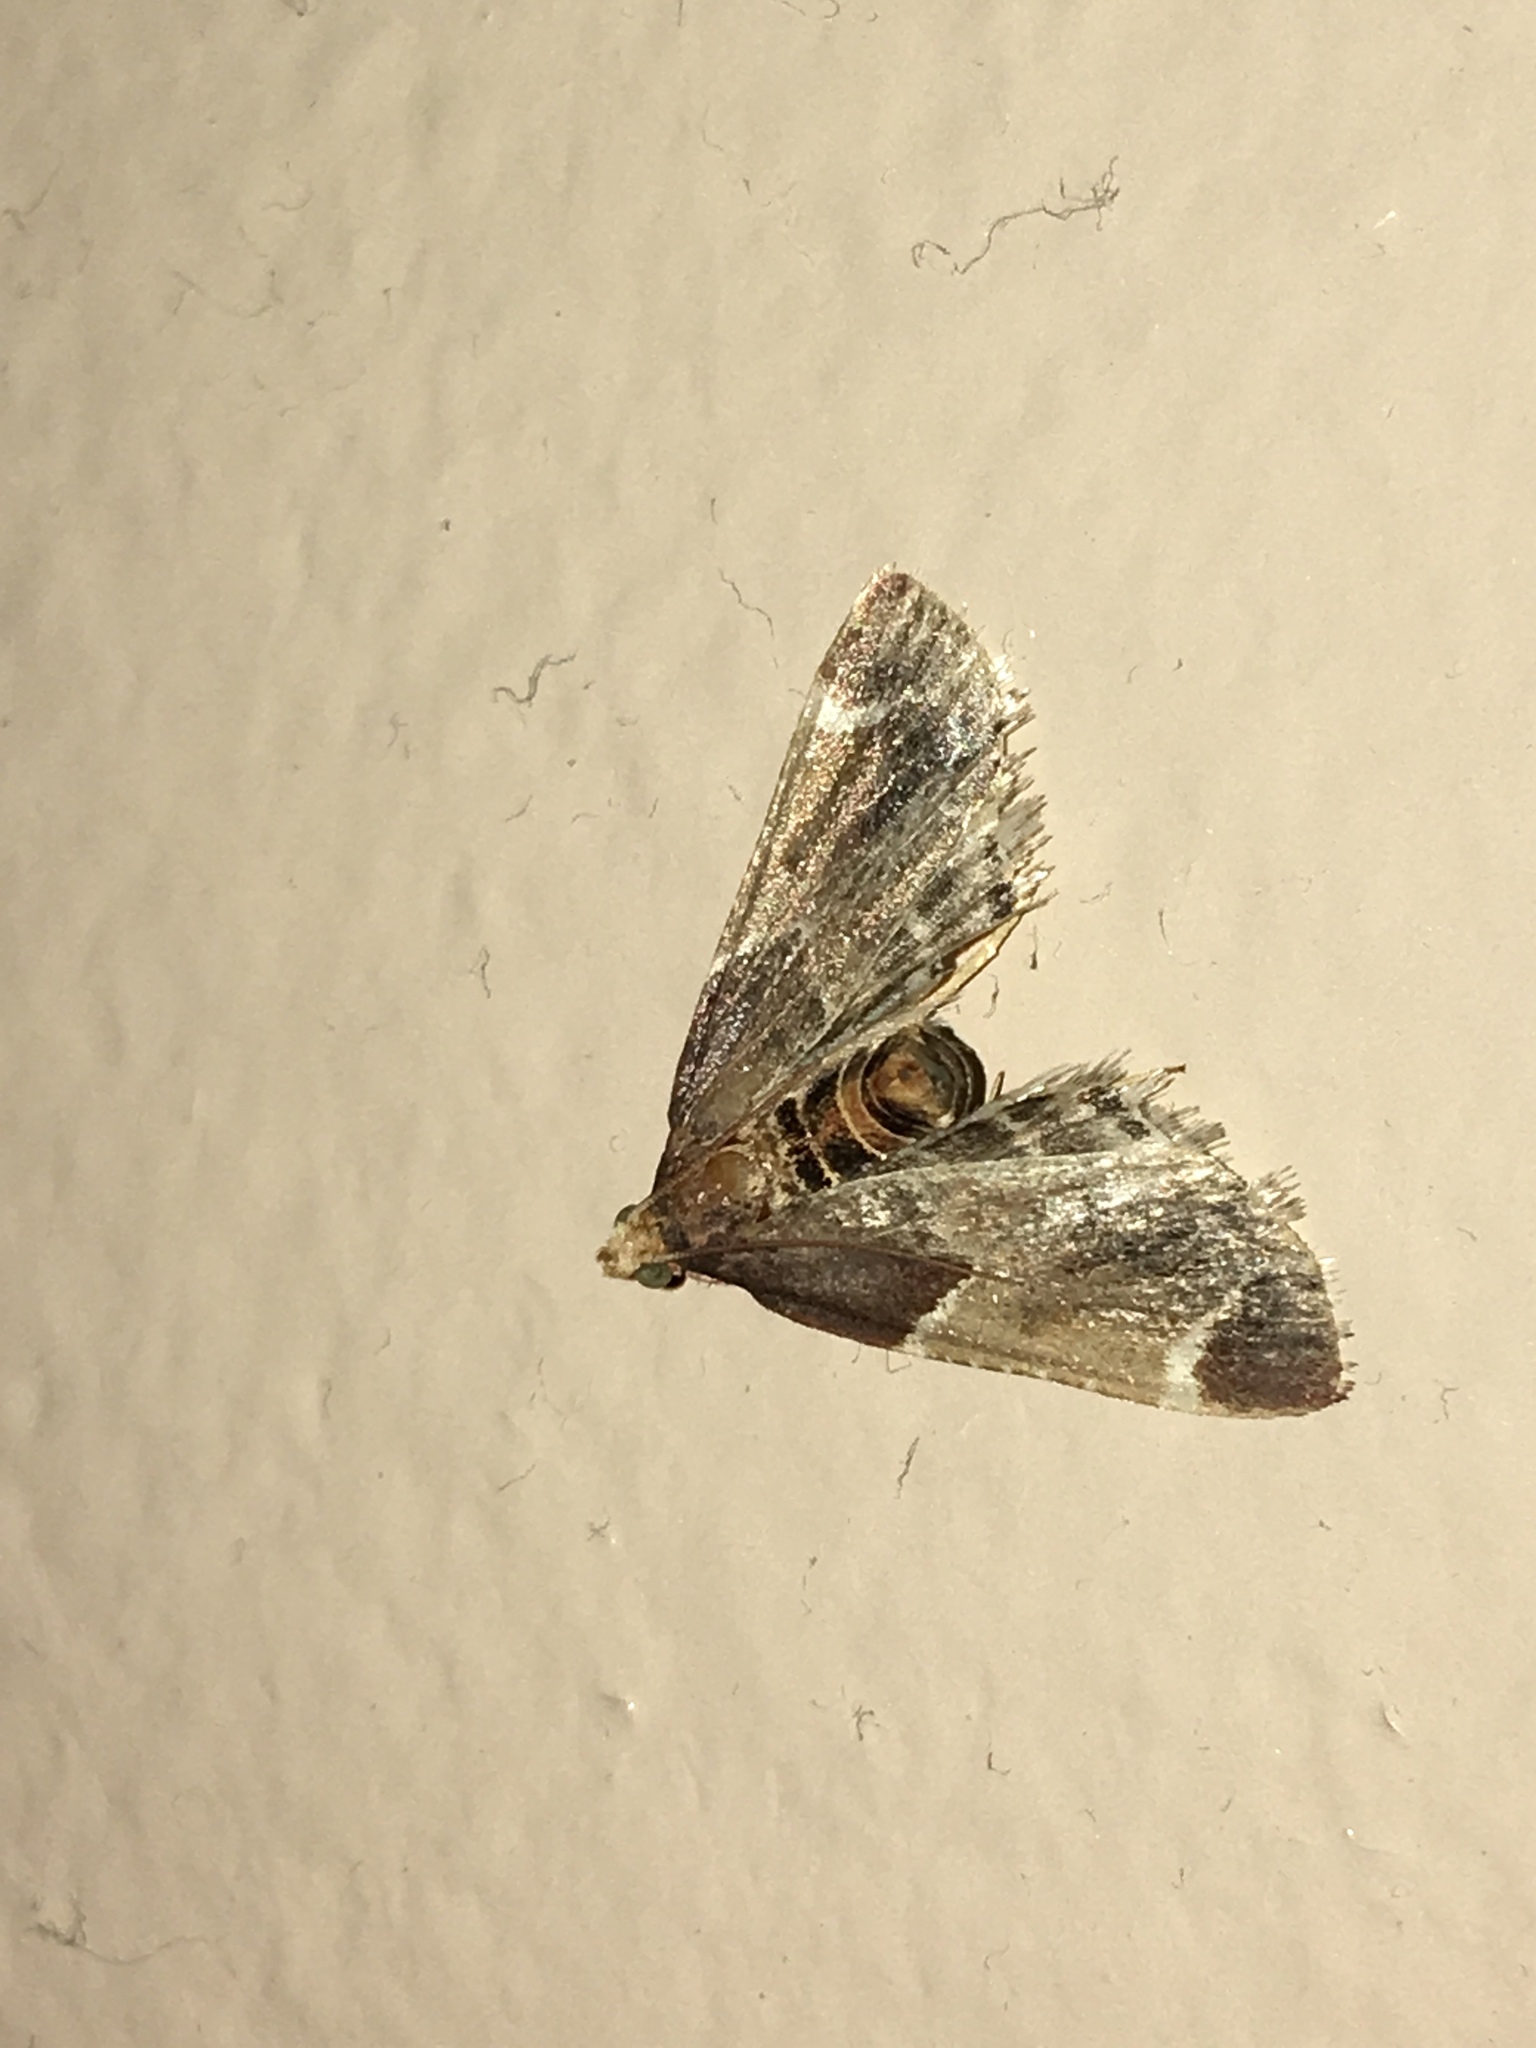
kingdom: Animalia
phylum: Arthropoda
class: Insecta
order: Lepidoptera
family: Pyralidae
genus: Pyralis
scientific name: Pyralis farinalis
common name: Meal moth
